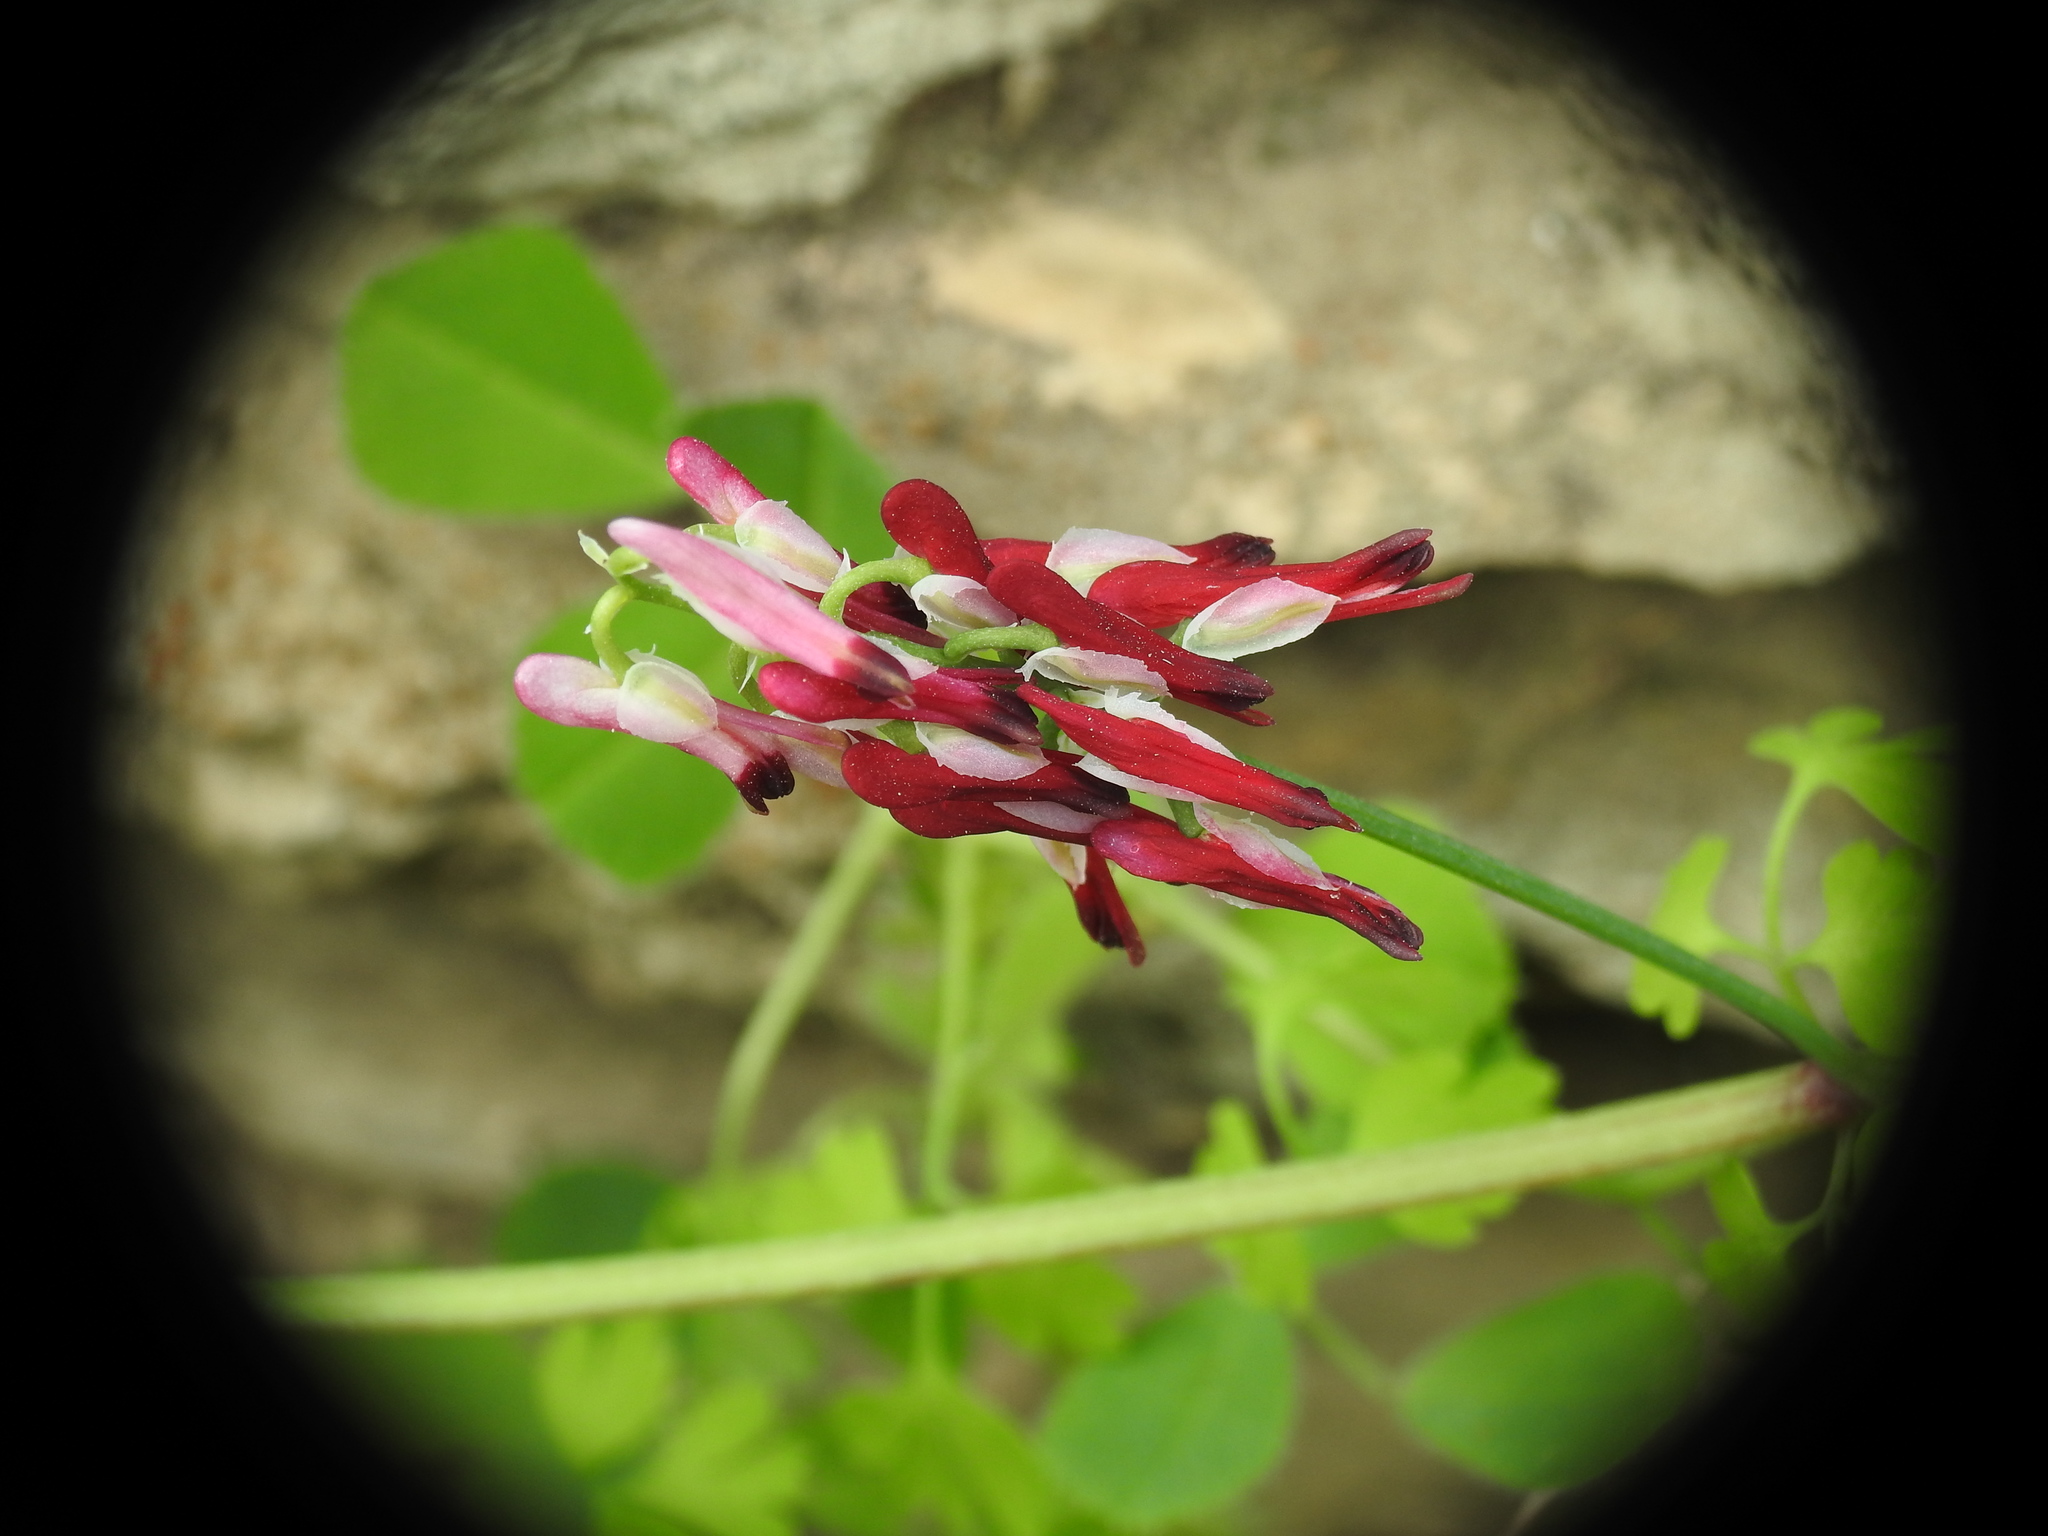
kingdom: Plantae
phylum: Tracheophyta
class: Magnoliopsida
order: Ranunculales
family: Papaveraceae
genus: Fumaria
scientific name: Fumaria capreolata
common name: White ramping-fumitory
